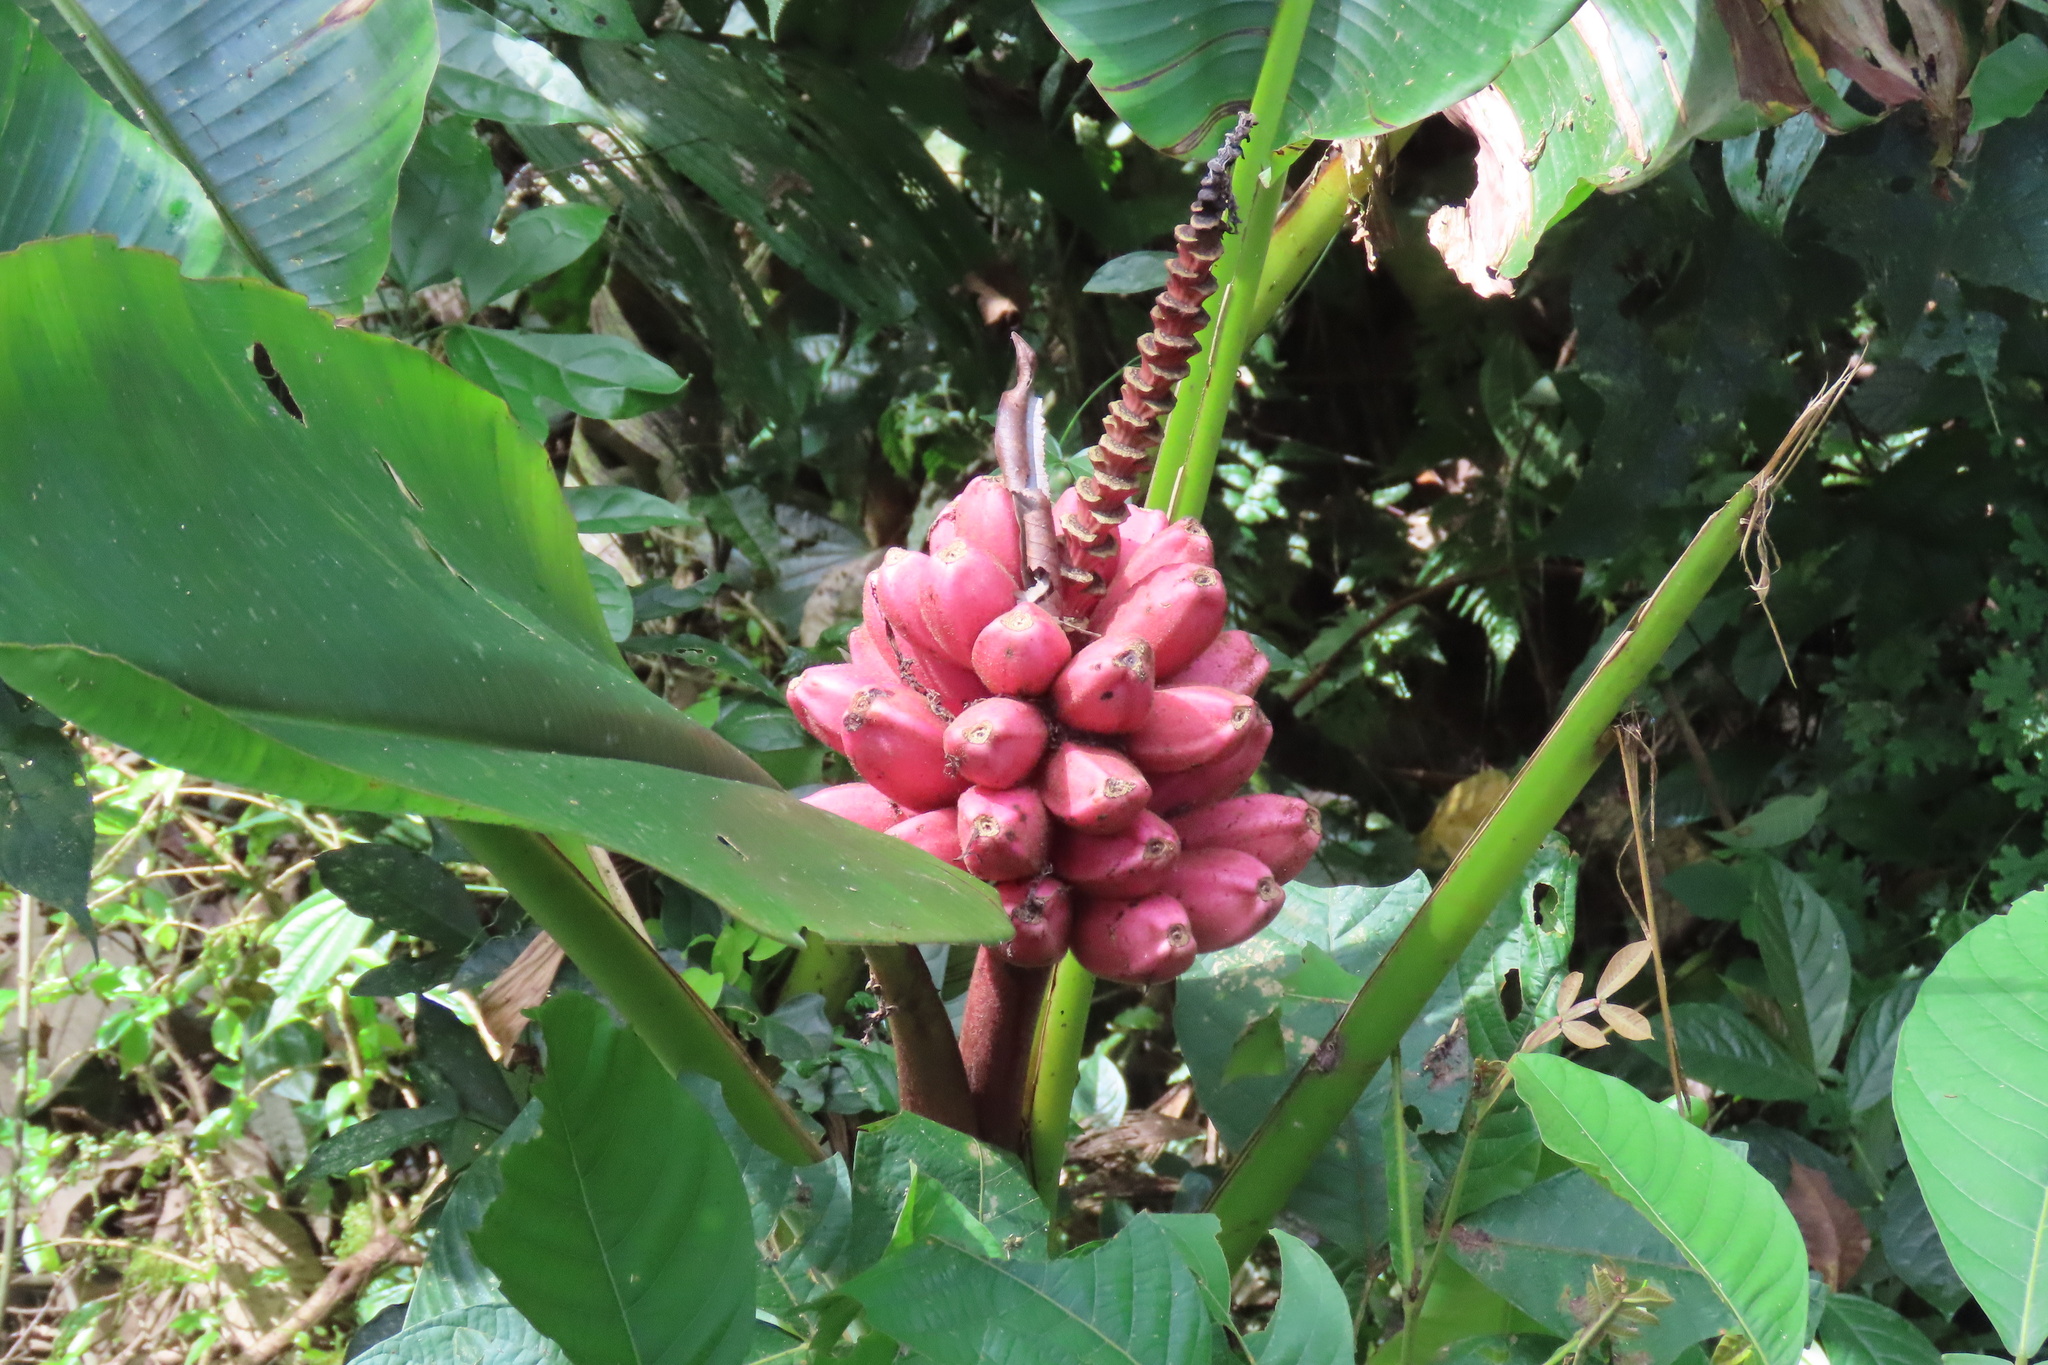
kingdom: Plantae
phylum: Tracheophyta
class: Liliopsida
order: Zingiberales
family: Musaceae
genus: Musa
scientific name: Musa velutina
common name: Pink velvet banana
